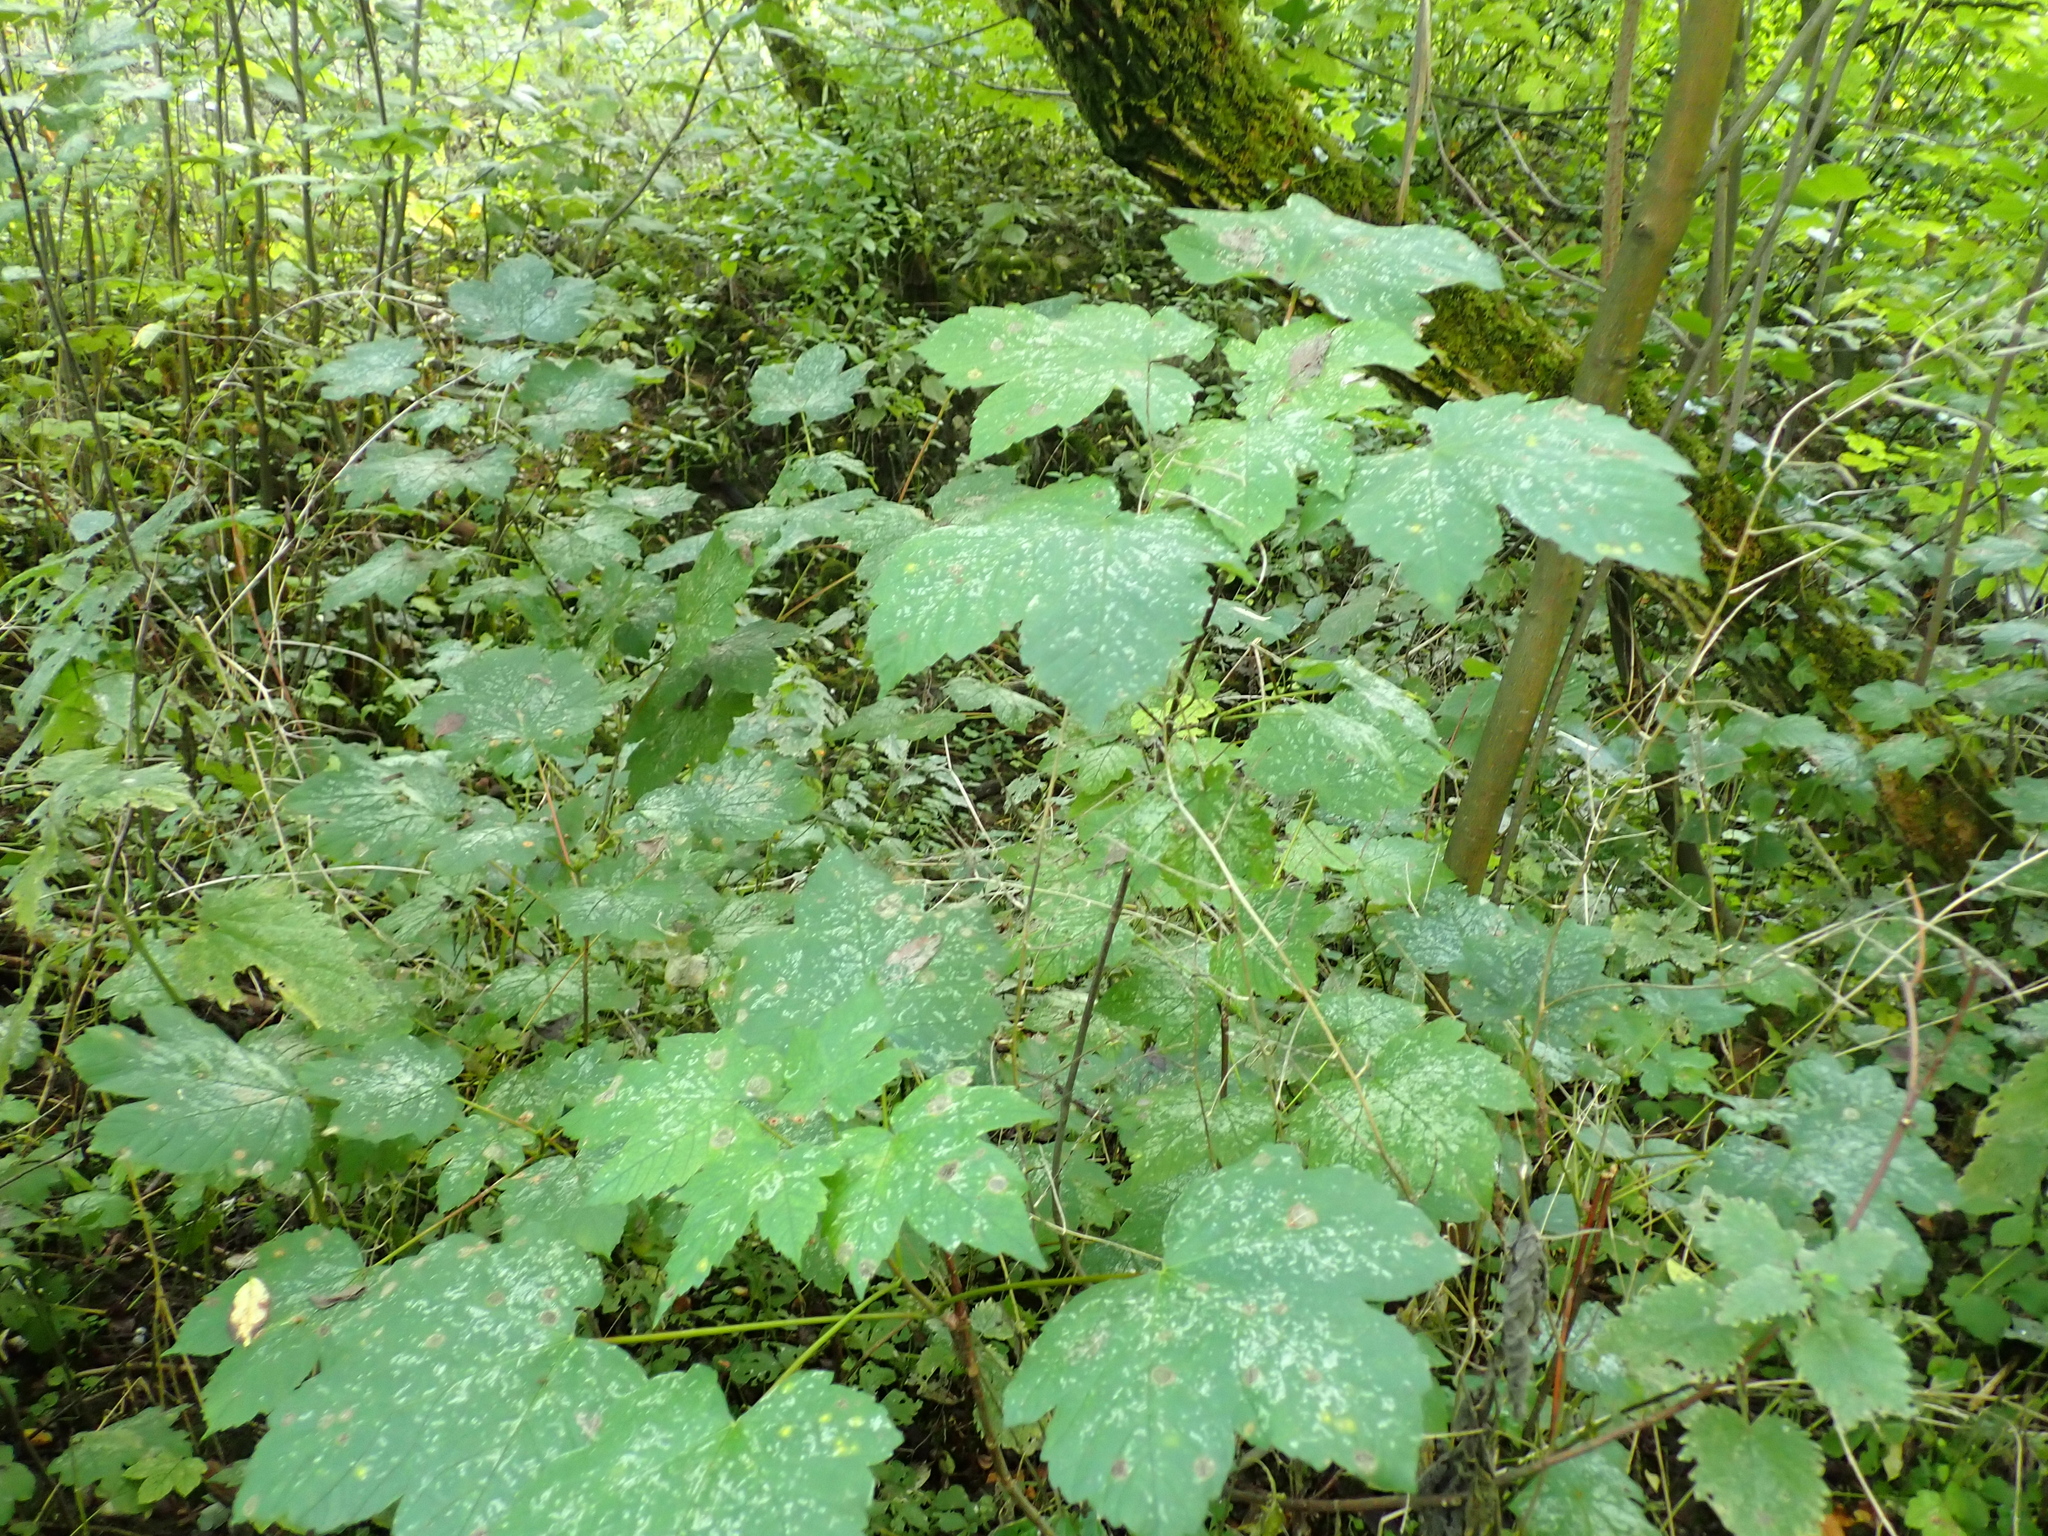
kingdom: Plantae
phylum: Tracheophyta
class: Magnoliopsida
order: Sapindales
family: Sapindaceae
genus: Acer
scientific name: Acer pseudoplatanus
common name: Sycamore
